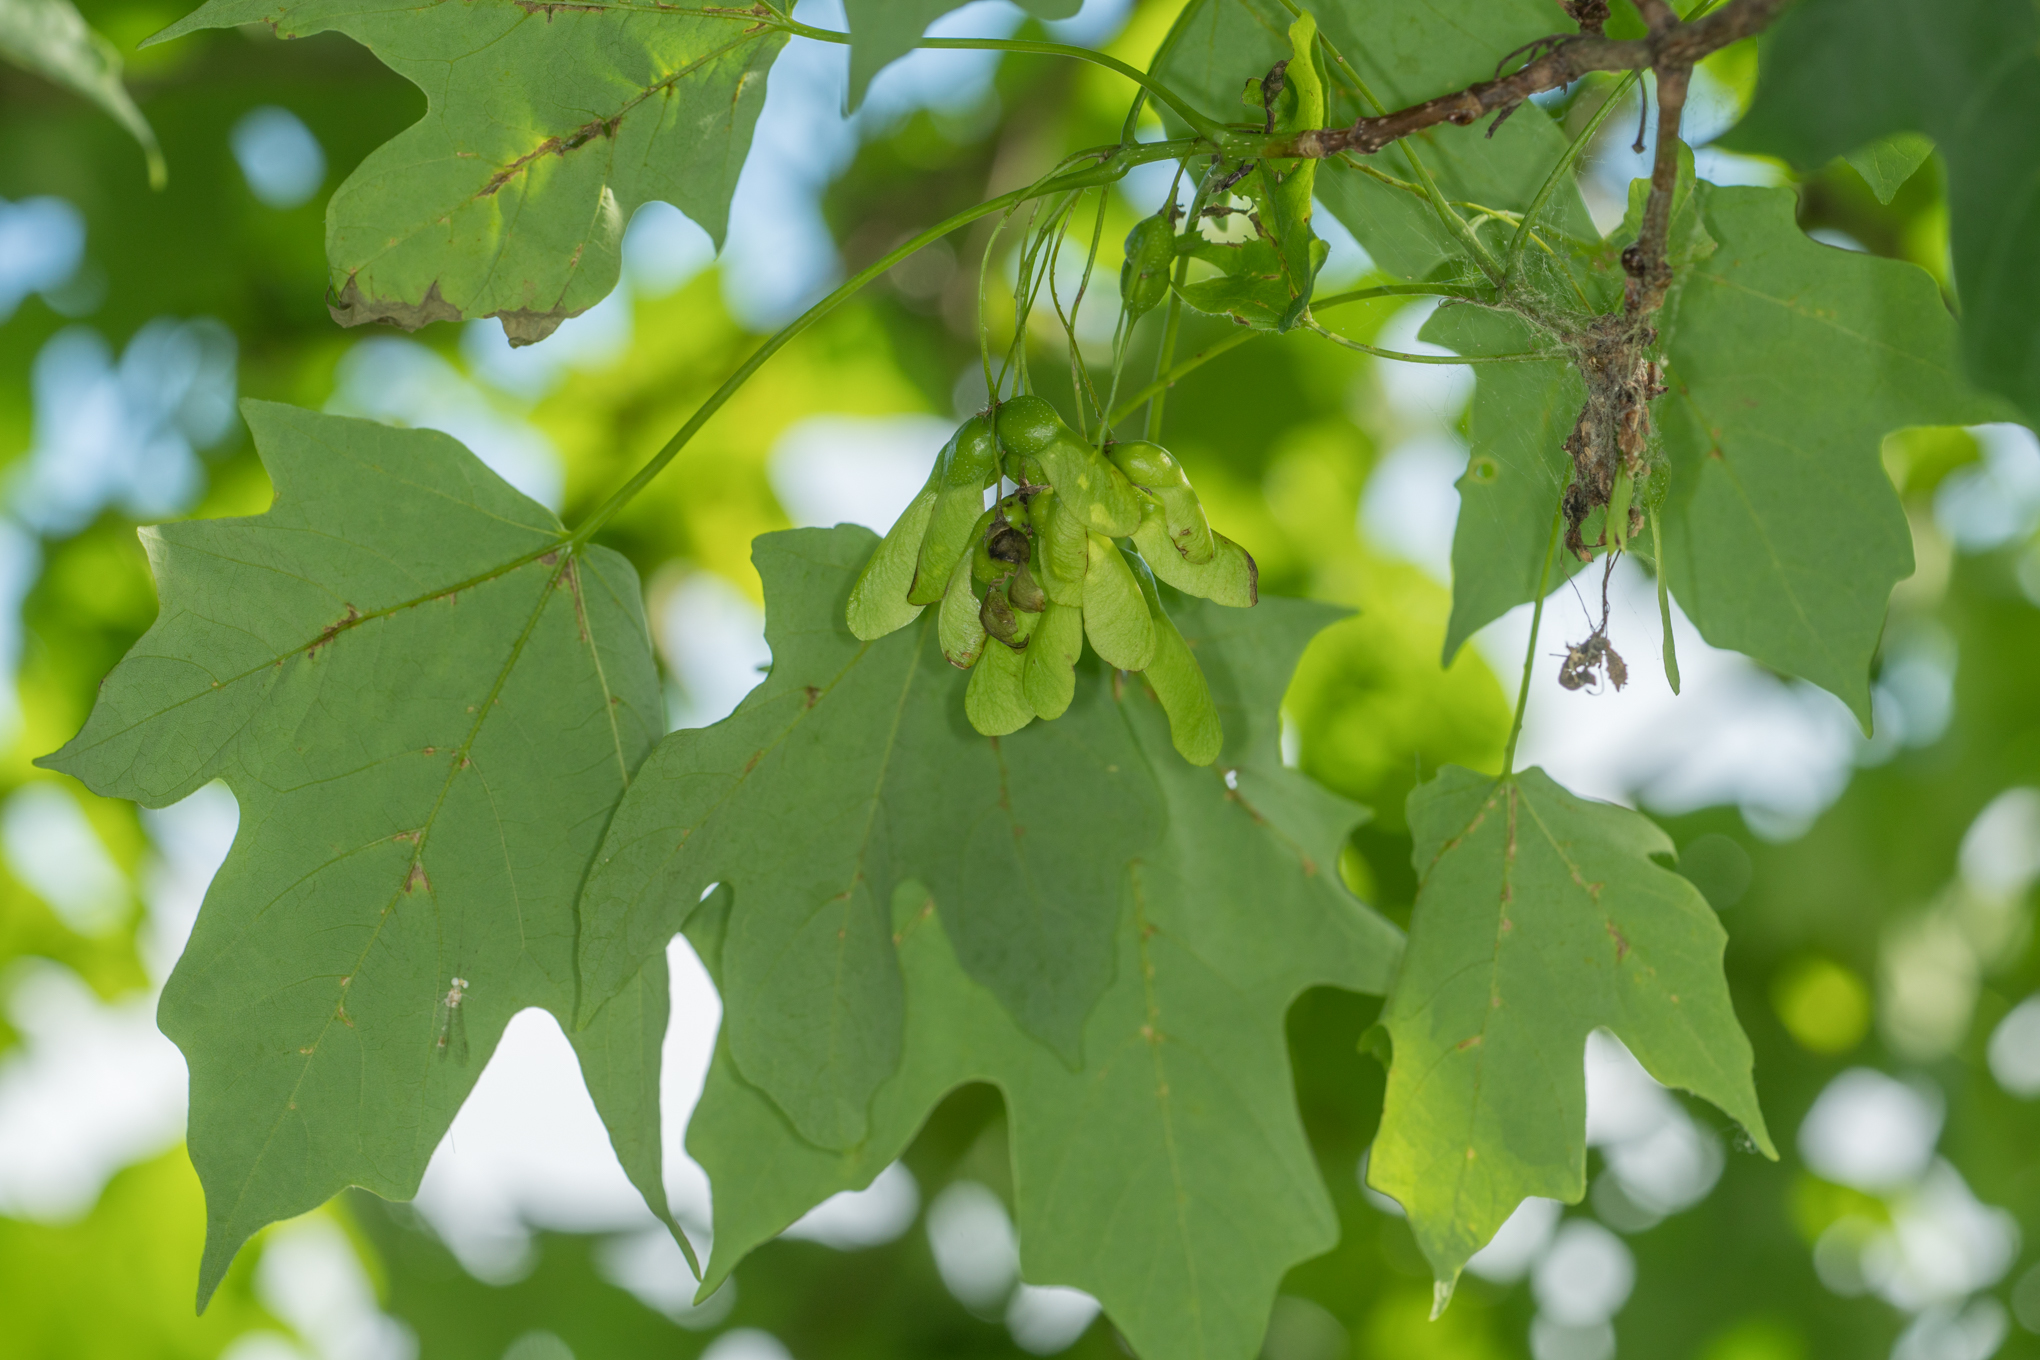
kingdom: Plantae
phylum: Tracheophyta
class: Magnoliopsida
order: Sapindales
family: Sapindaceae
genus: Acer
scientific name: Acer saccharum
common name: Sugar maple
